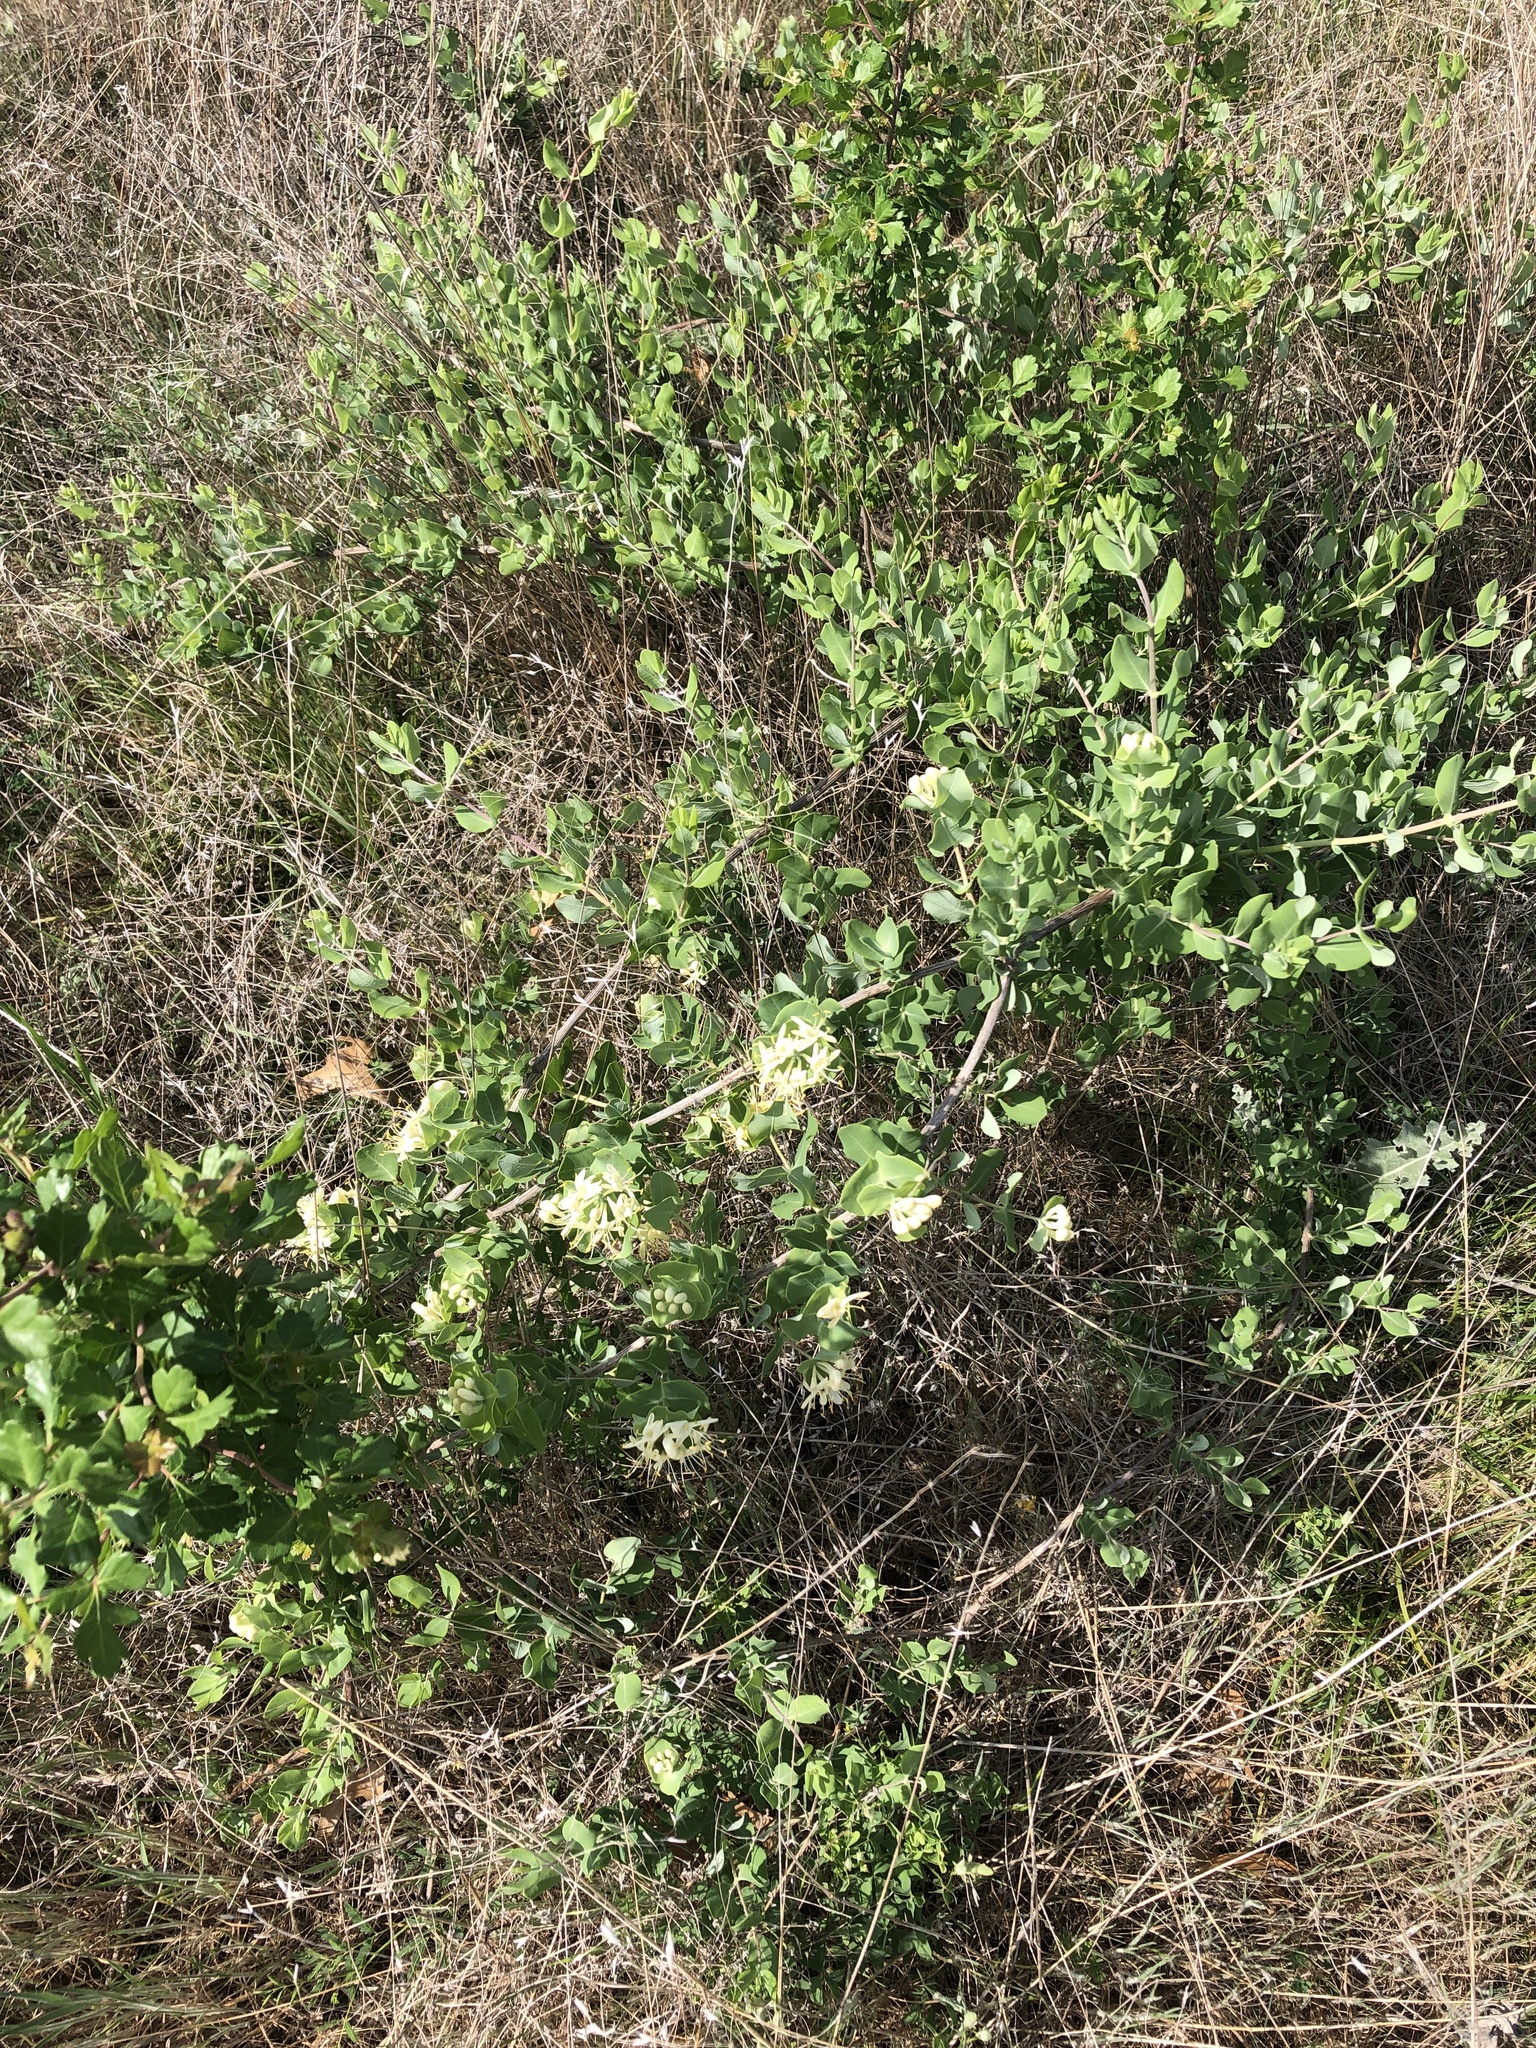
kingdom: Plantae
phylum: Tracheophyta
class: Magnoliopsida
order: Dipsacales
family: Caprifoliaceae
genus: Lonicera
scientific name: Lonicera albiflora
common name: White honeysuckle
